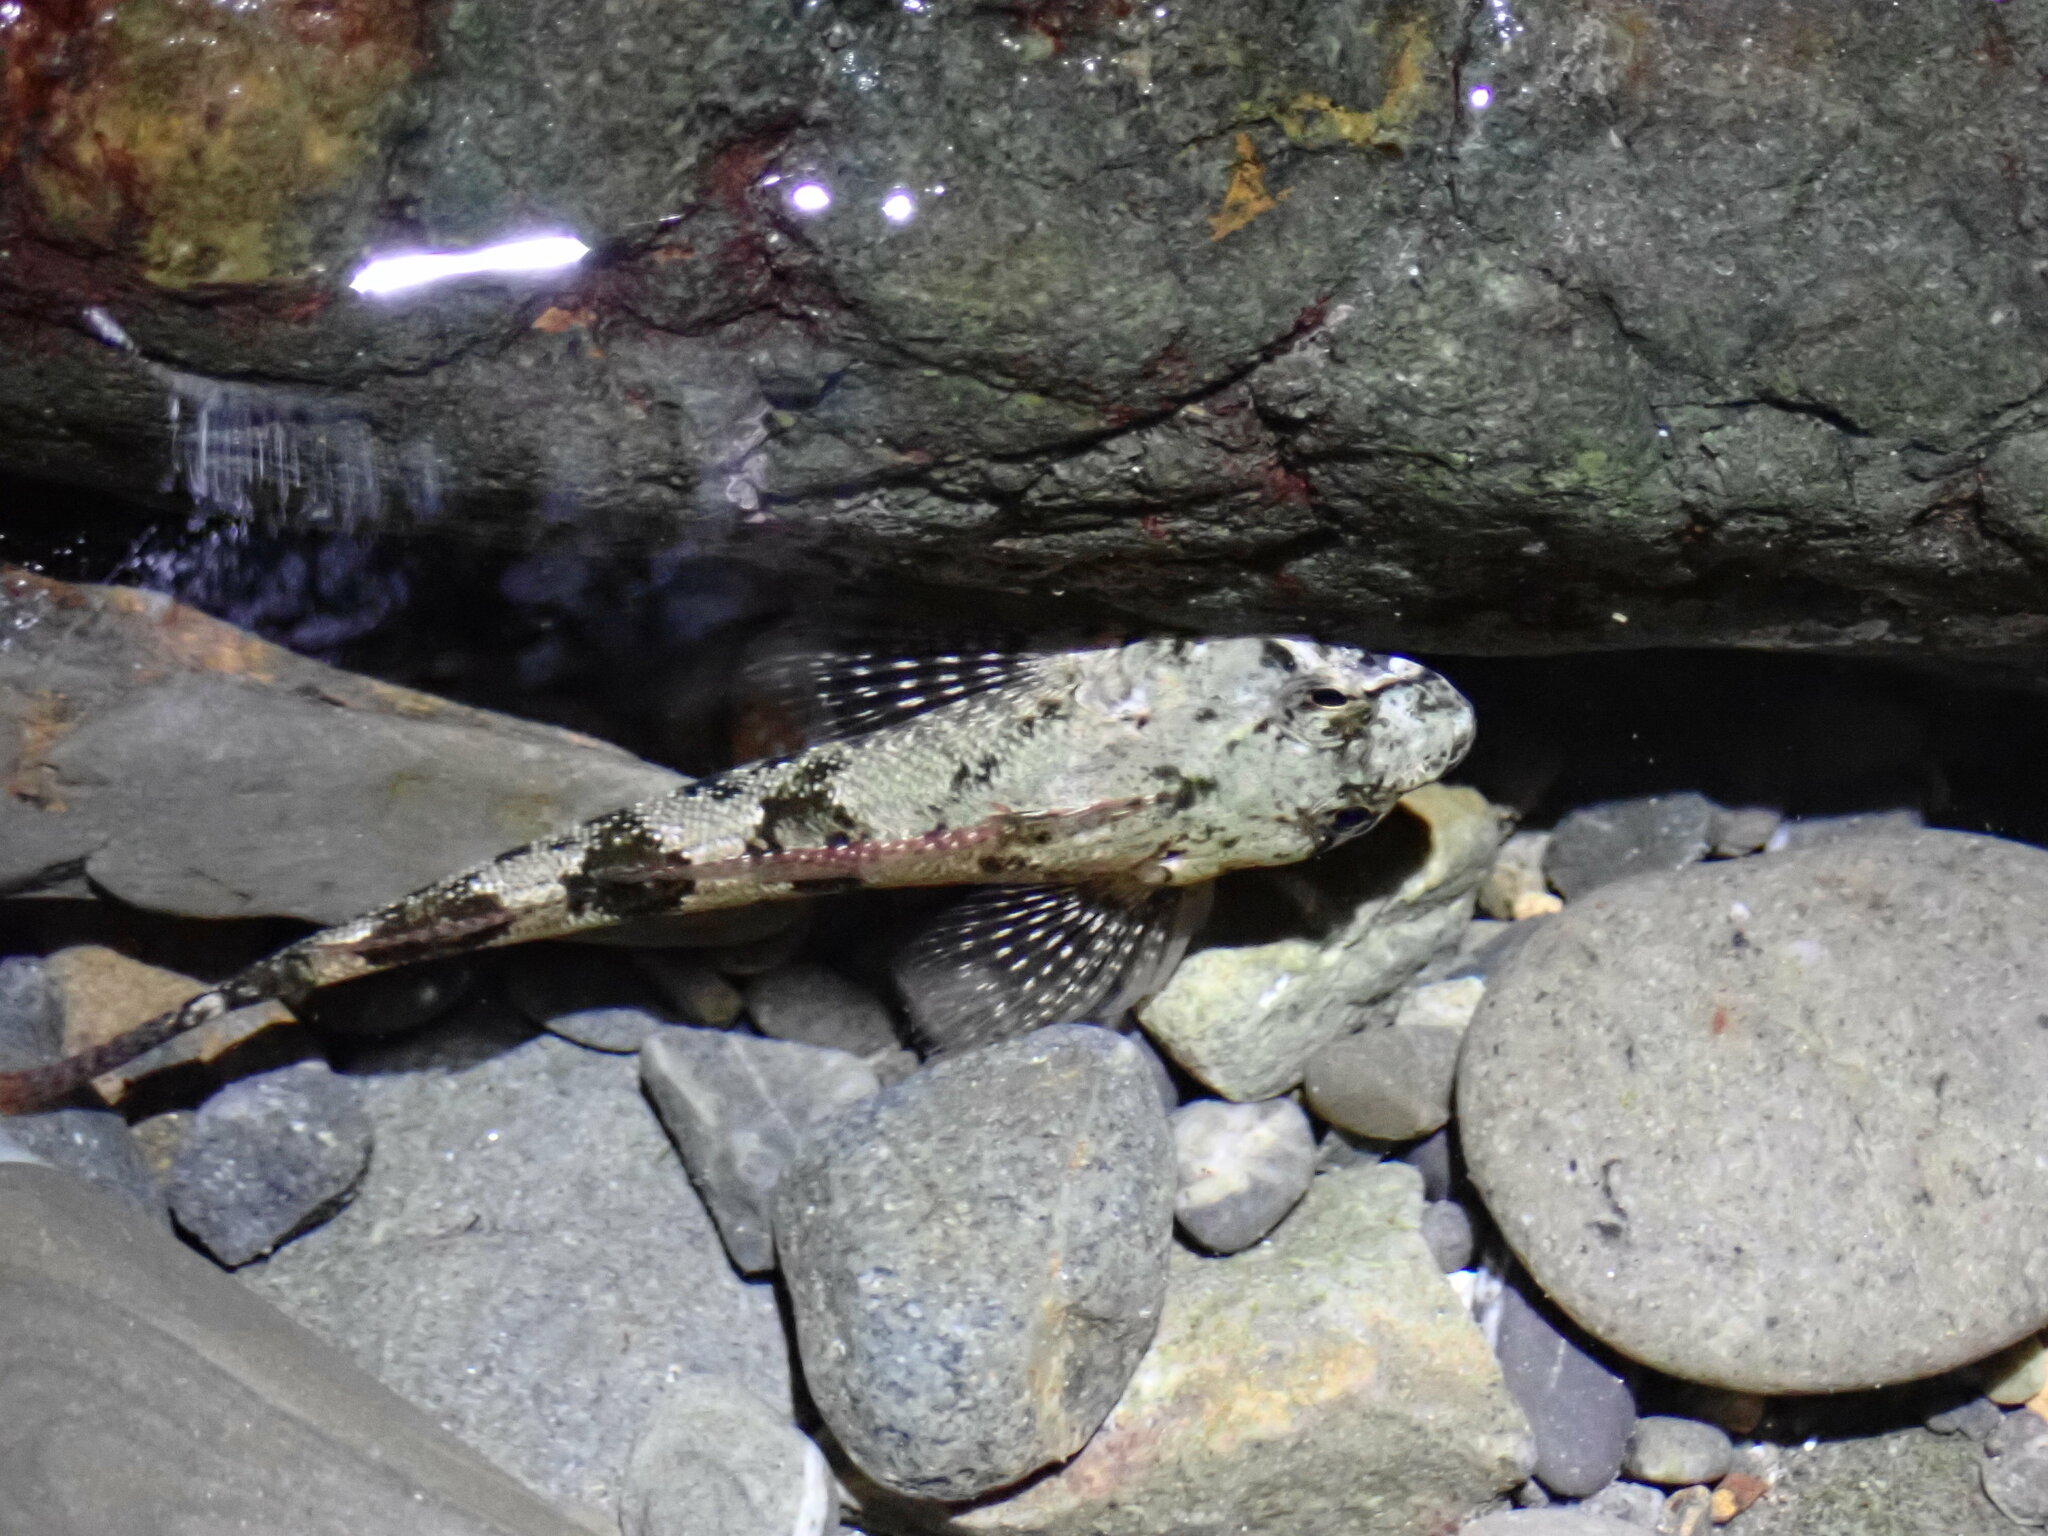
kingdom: Animalia
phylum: Chordata
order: Perciformes
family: Tripterygiidae
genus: Bellapiscis
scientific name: Bellapiscis medius
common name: Twister
